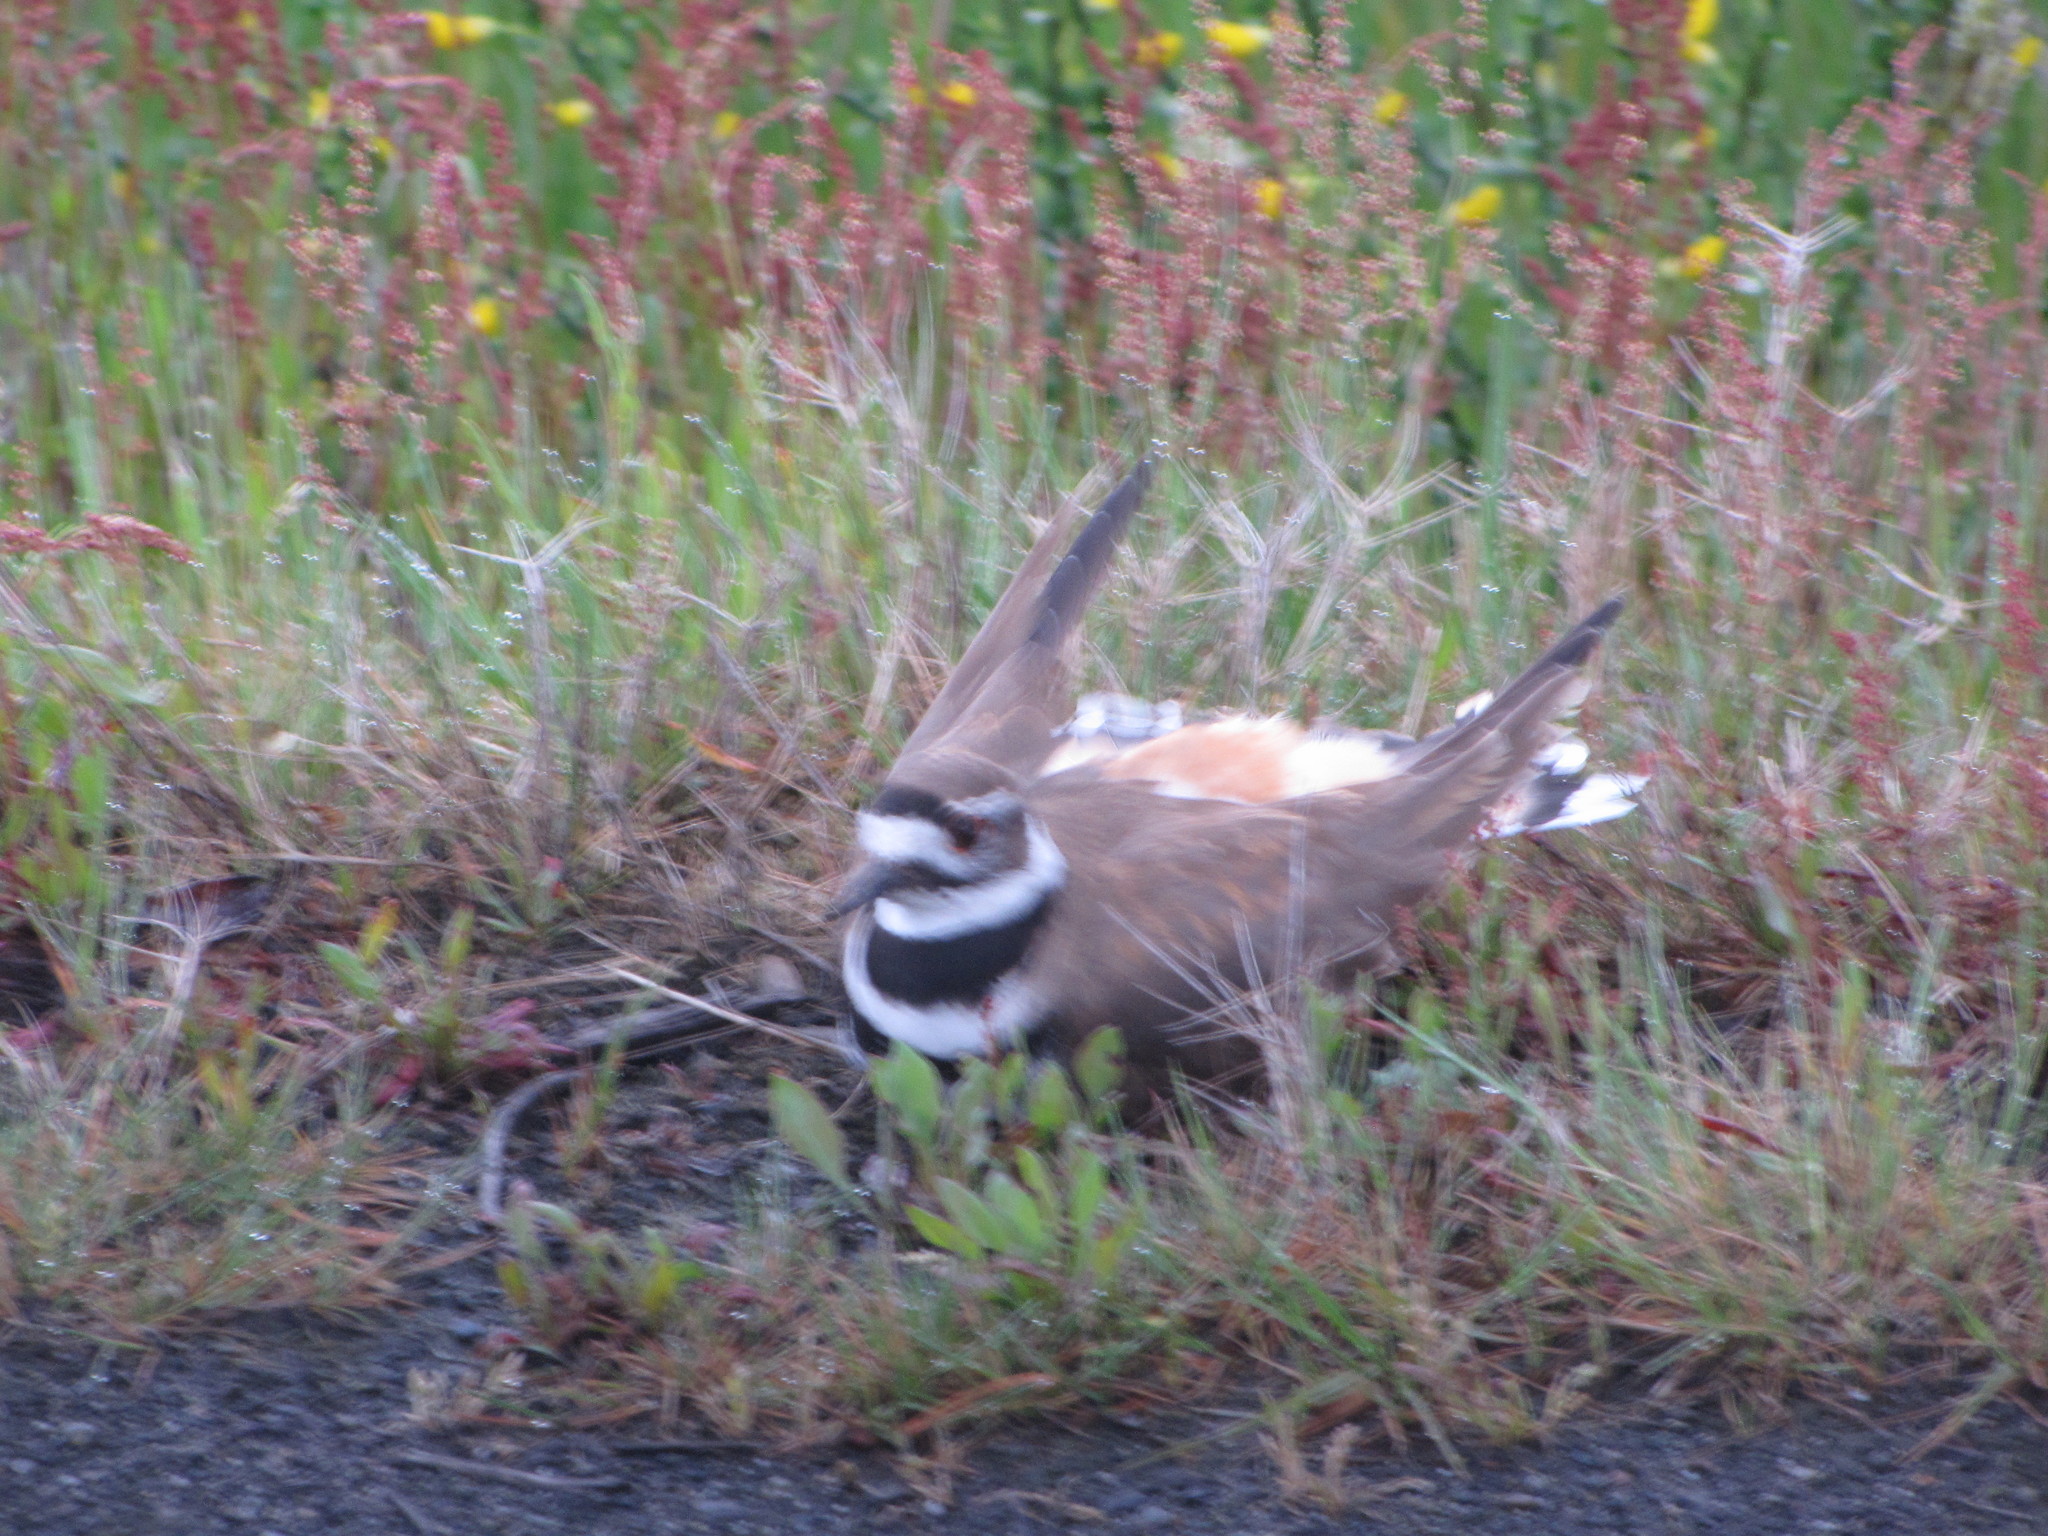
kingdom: Animalia
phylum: Chordata
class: Aves
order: Charadriiformes
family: Charadriidae
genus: Charadrius
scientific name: Charadrius vociferus
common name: Killdeer
